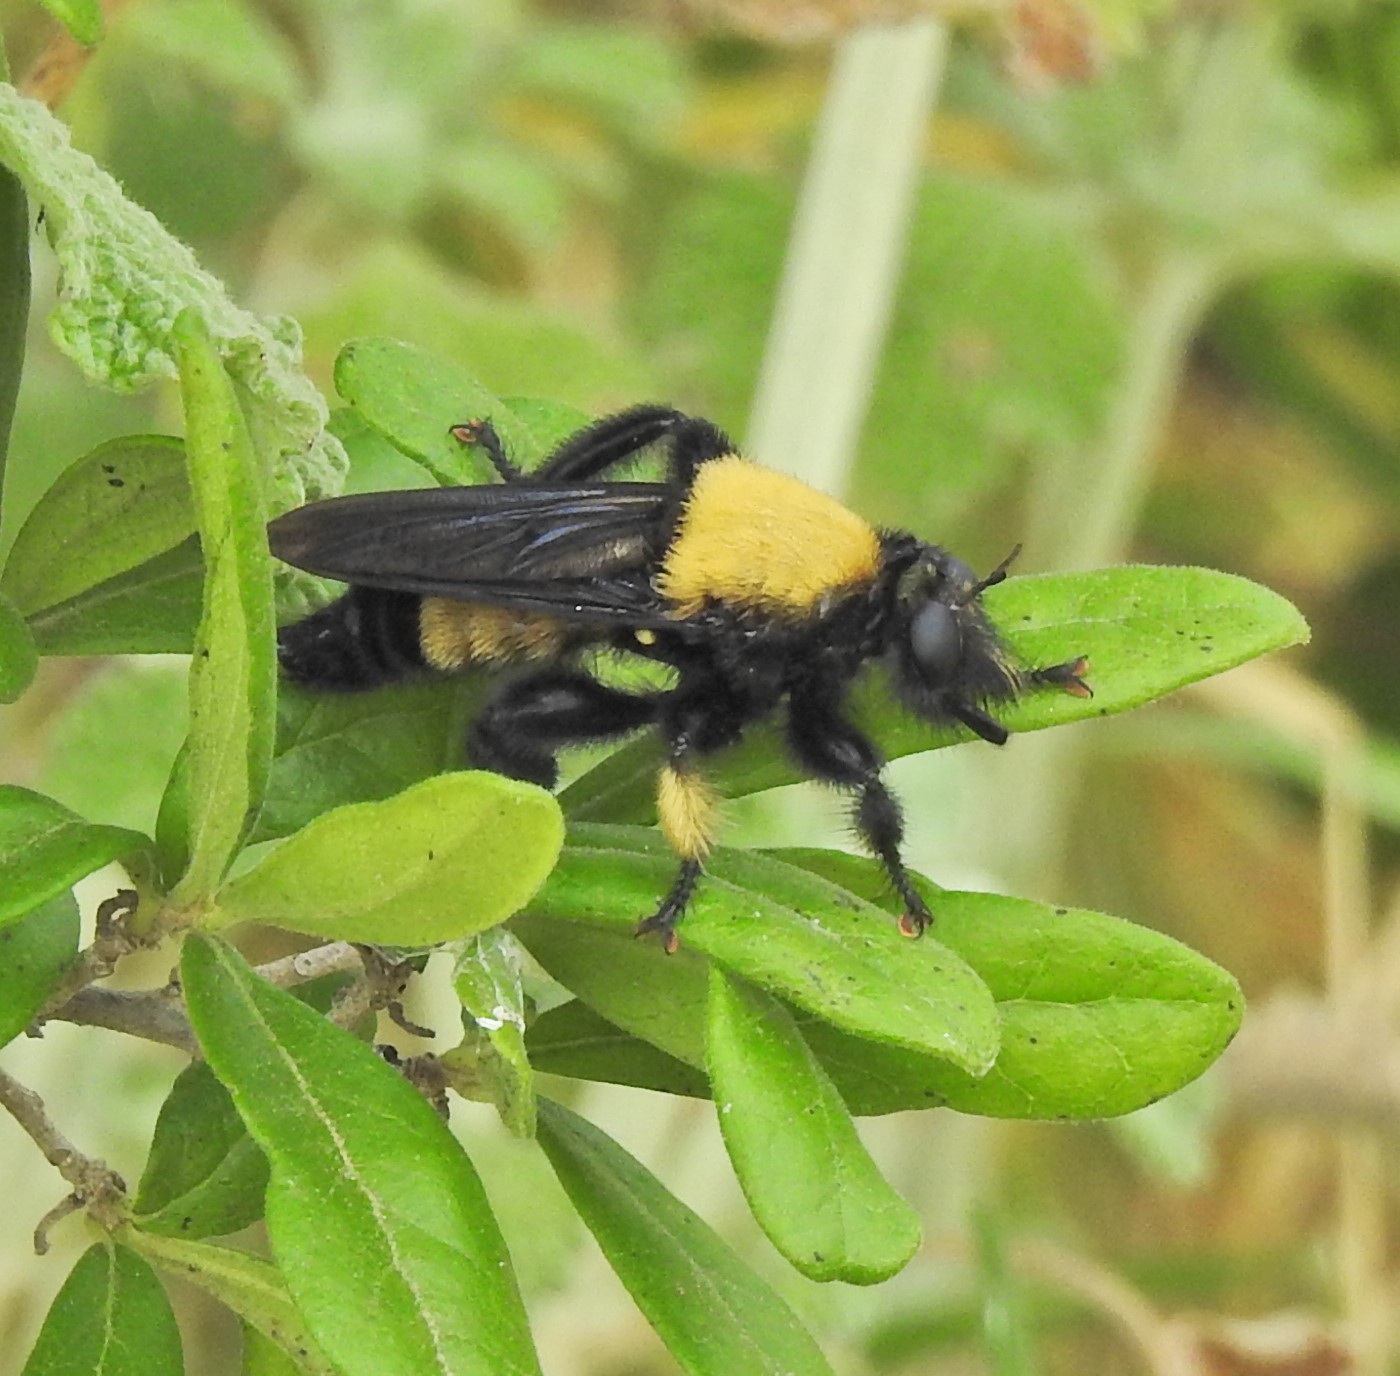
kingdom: Animalia
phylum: Arthropoda
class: Insecta
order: Diptera
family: Asilidae
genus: Laphria
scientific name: Laphria macquarti
